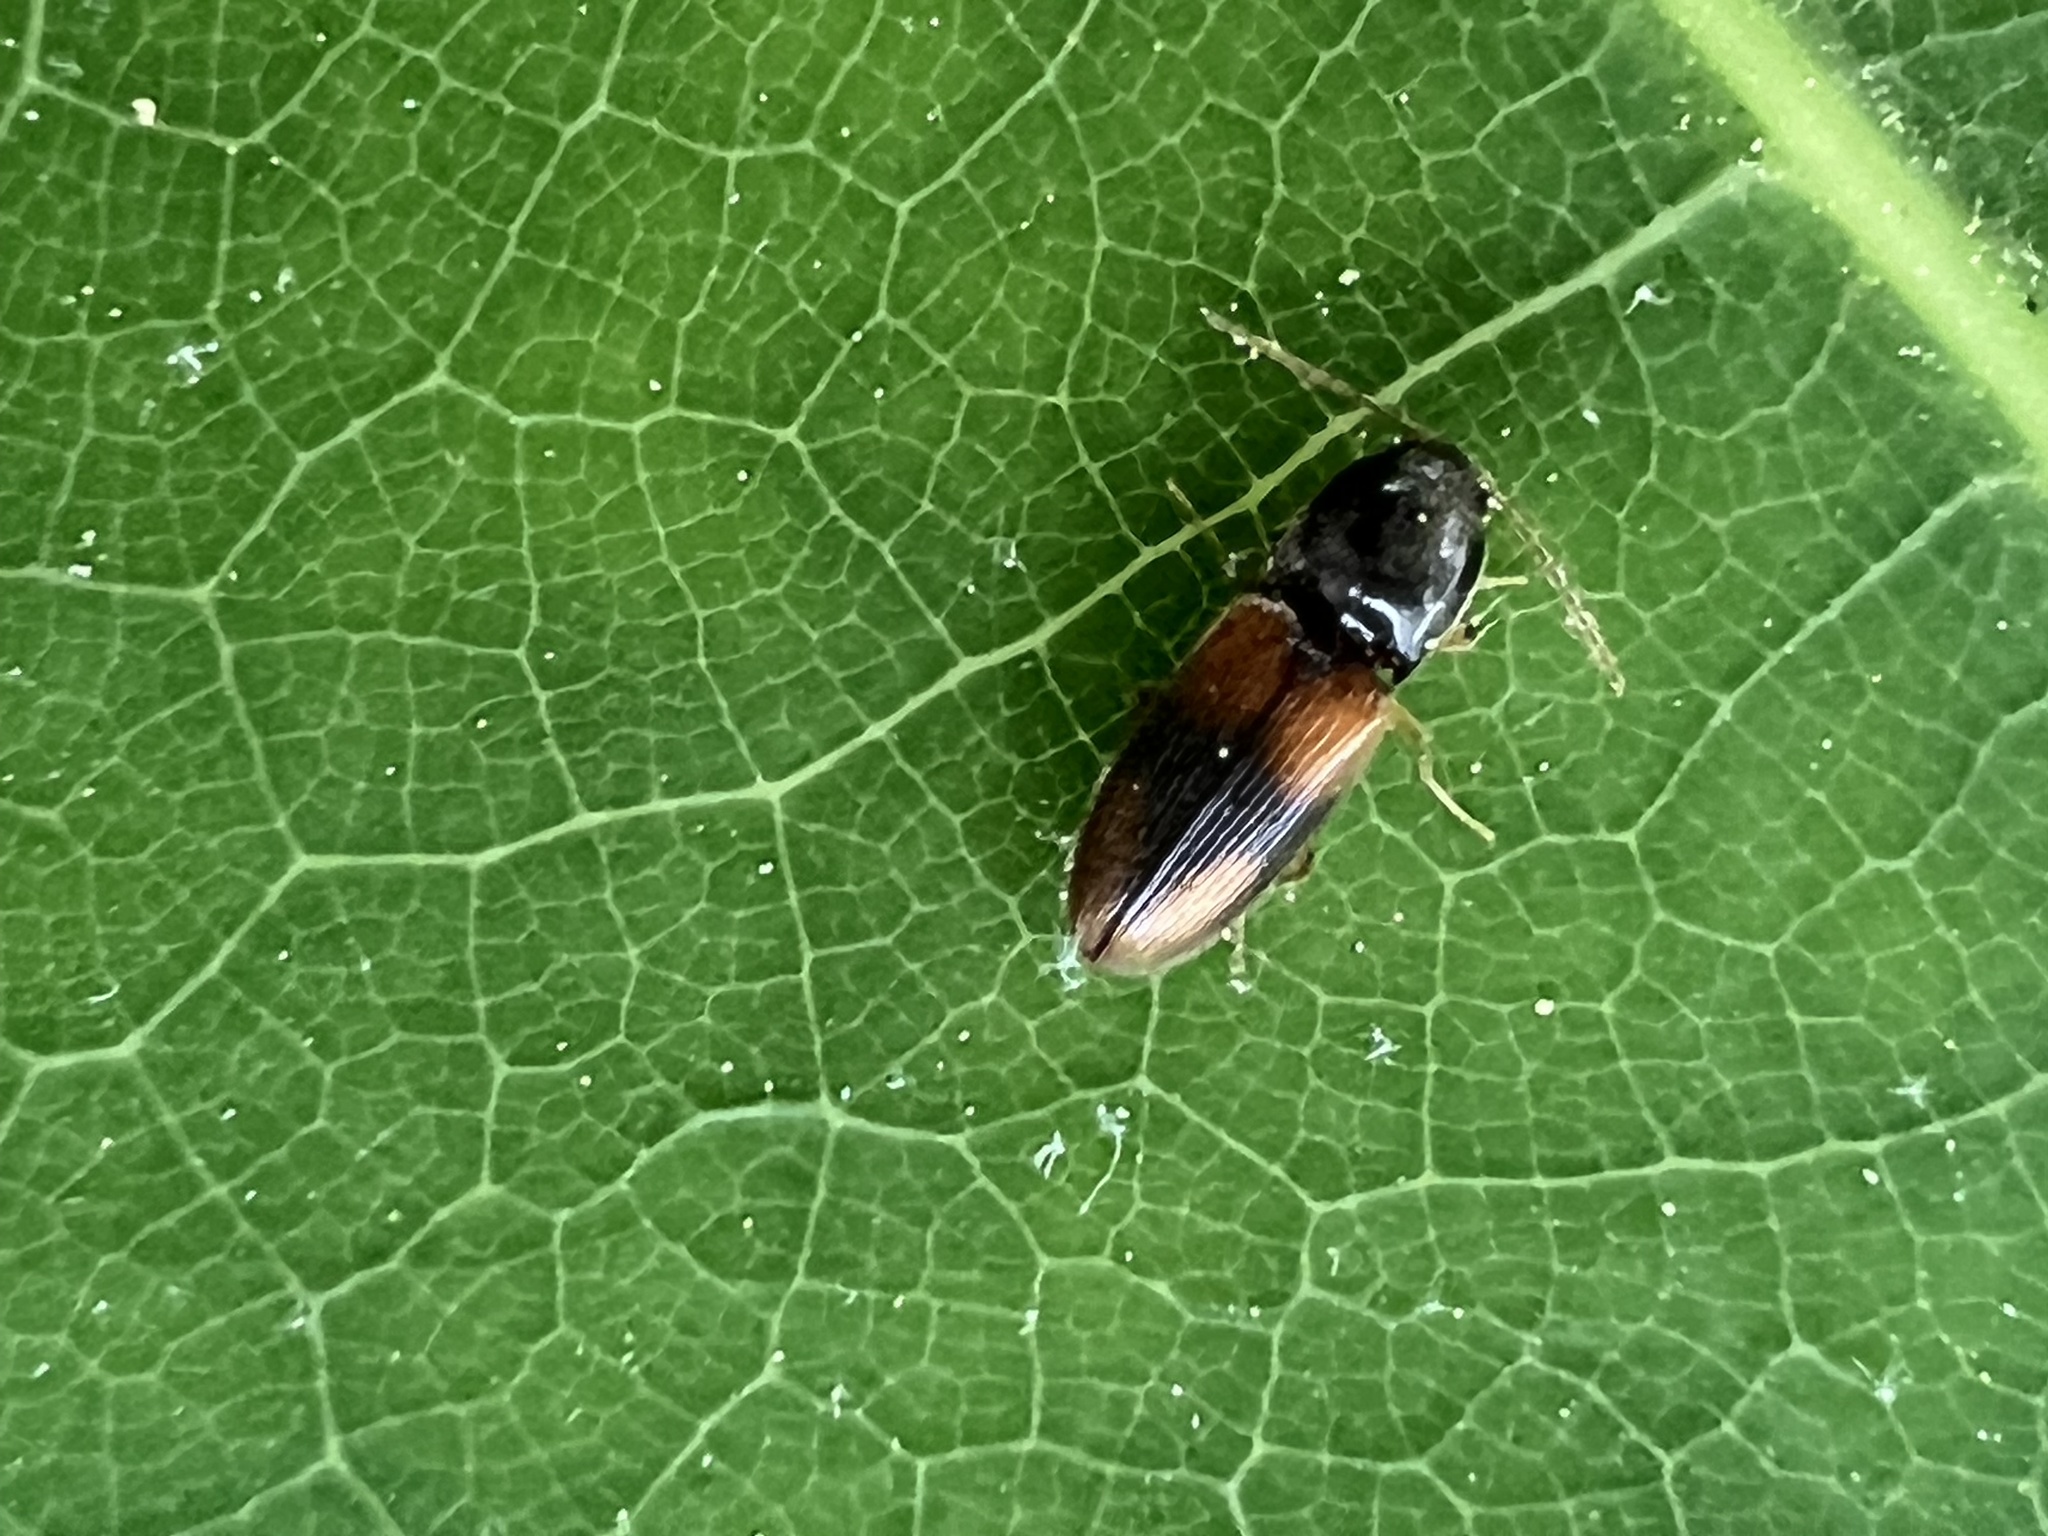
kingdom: Animalia
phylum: Arthropoda
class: Insecta
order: Coleoptera
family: Elateridae
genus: Horistonotus
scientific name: Horistonotus curiatus
